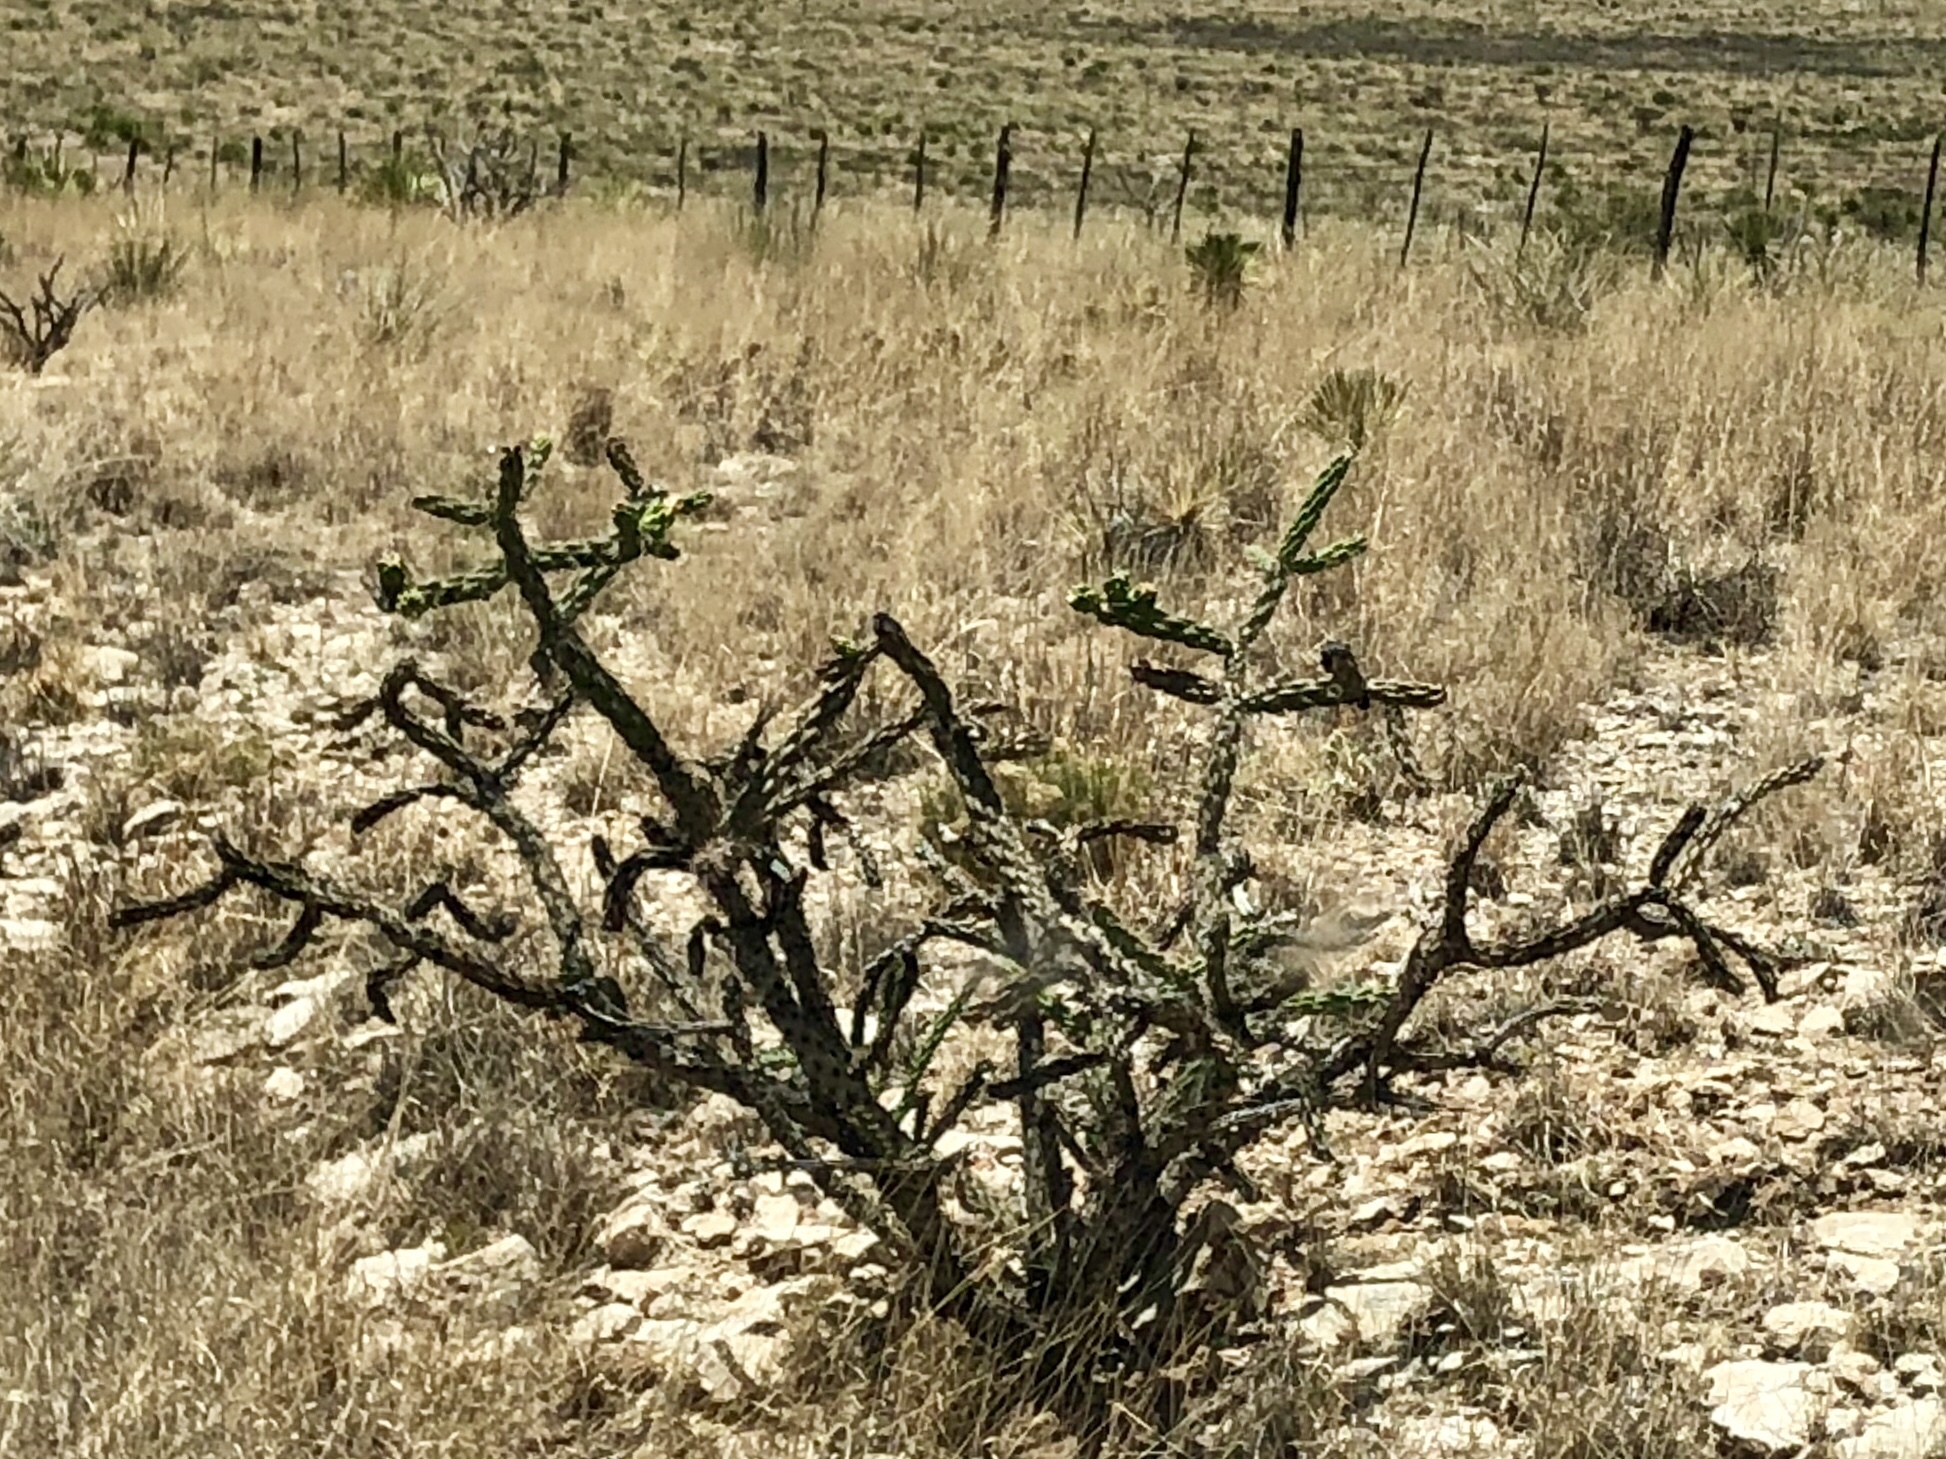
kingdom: Plantae
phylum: Tracheophyta
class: Magnoliopsida
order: Caryophyllales
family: Cactaceae
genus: Cylindropuntia
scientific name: Cylindropuntia imbricata
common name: Candelabrum cactus
